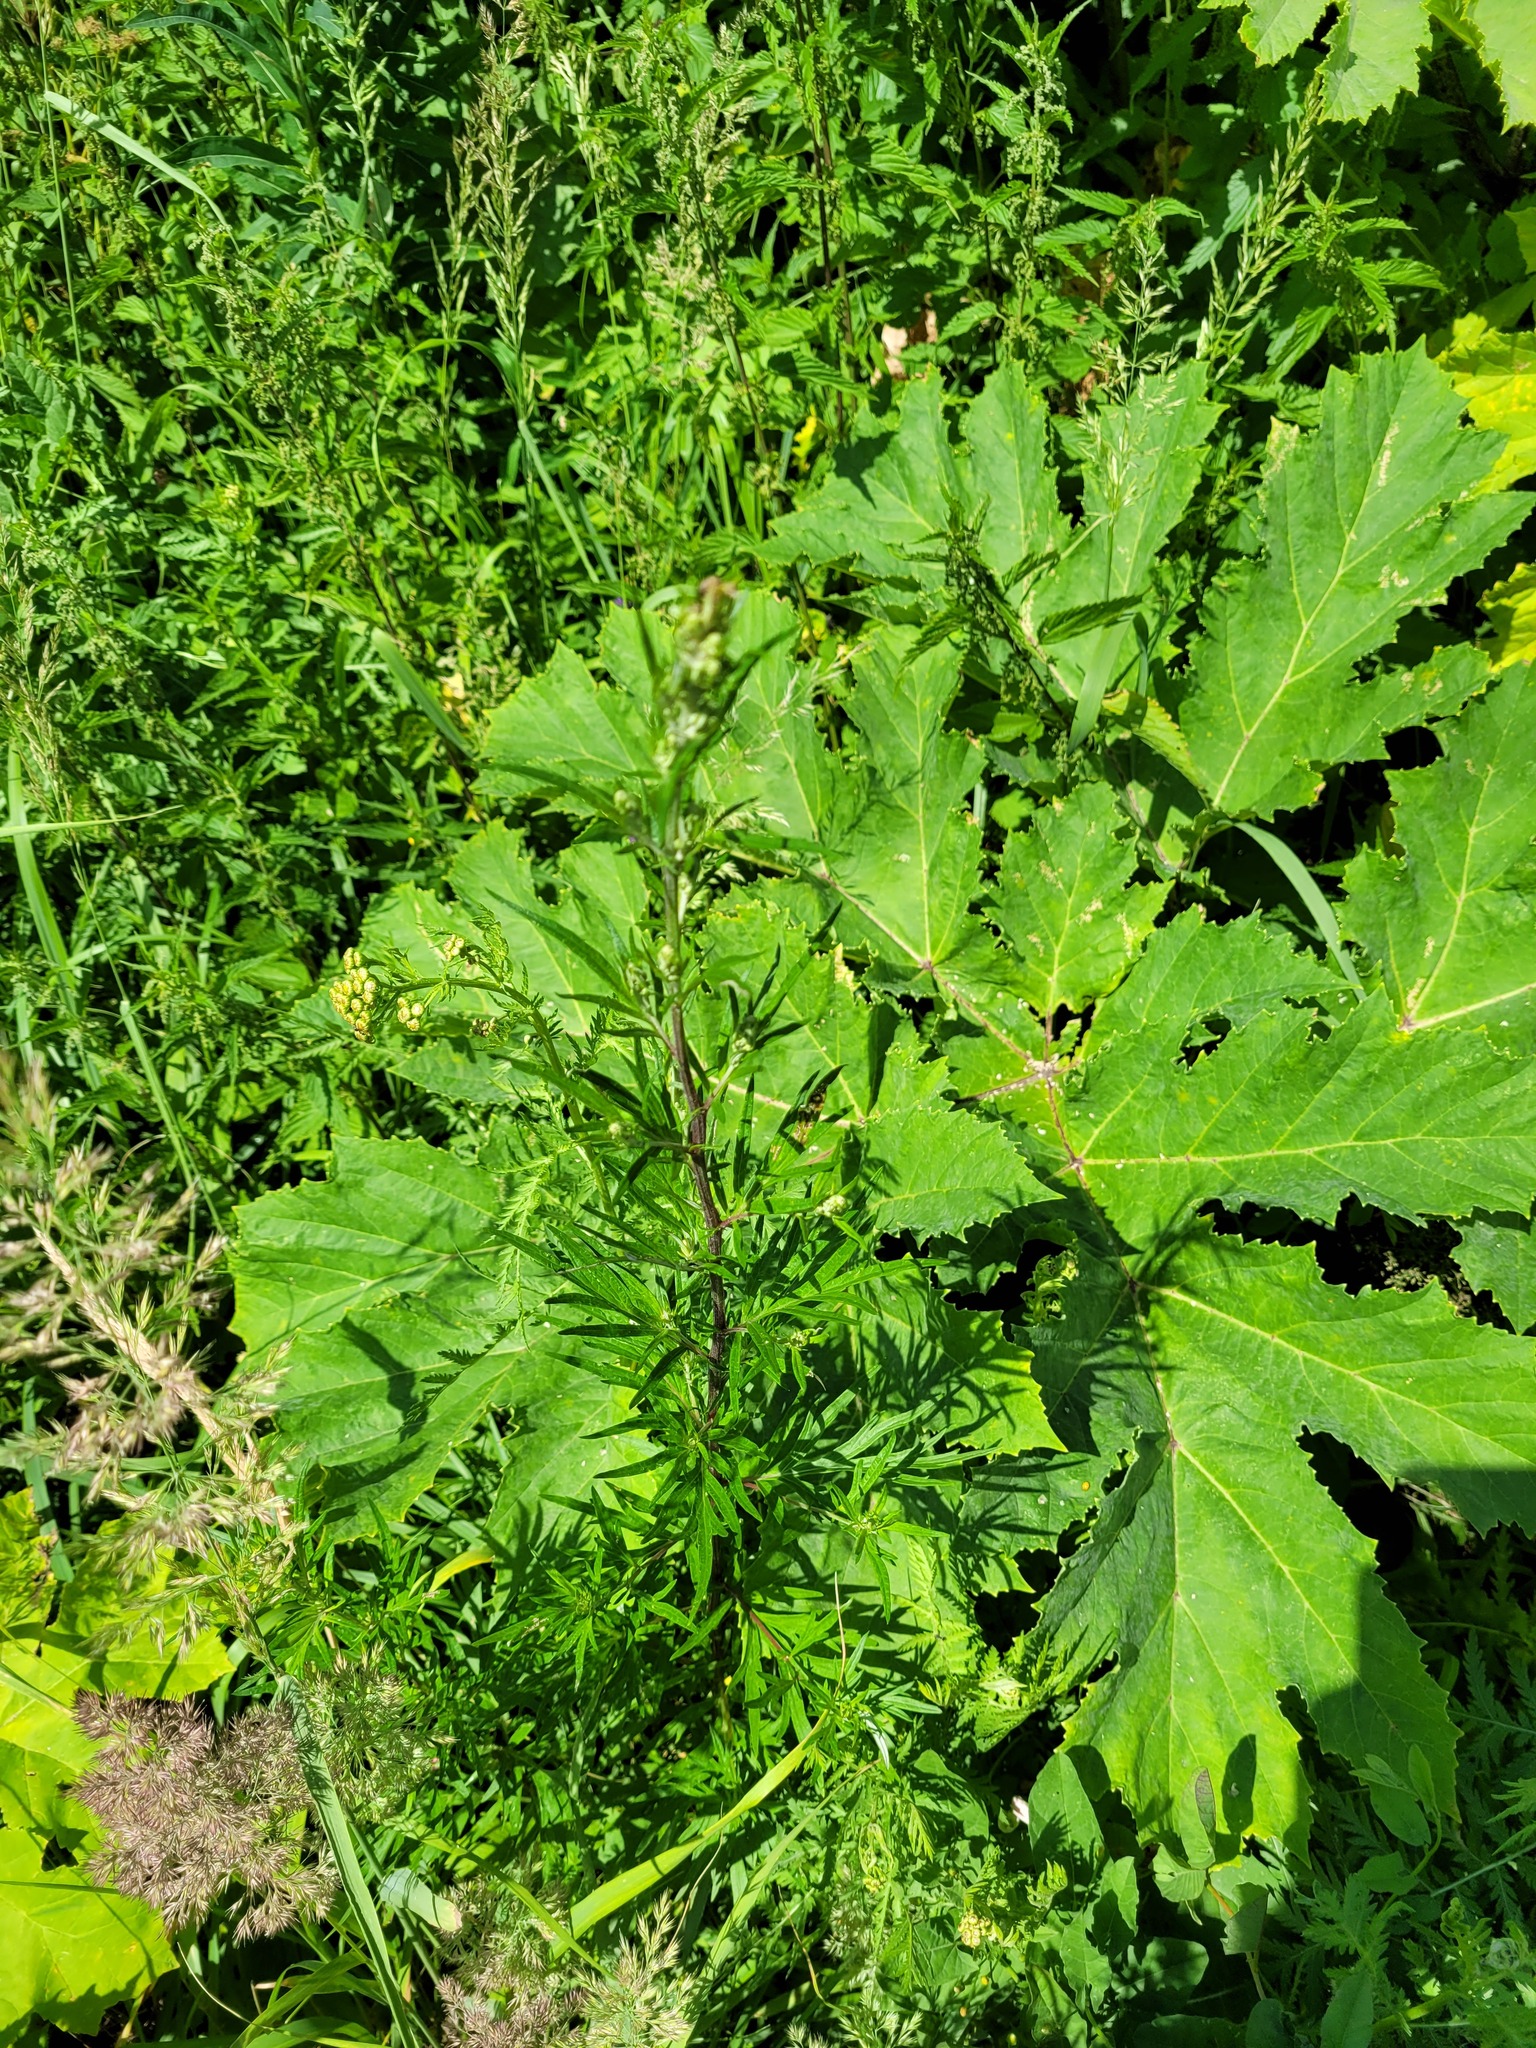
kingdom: Plantae
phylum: Tracheophyta
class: Magnoliopsida
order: Asterales
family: Asteraceae
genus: Artemisia
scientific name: Artemisia vulgaris
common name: Mugwort
